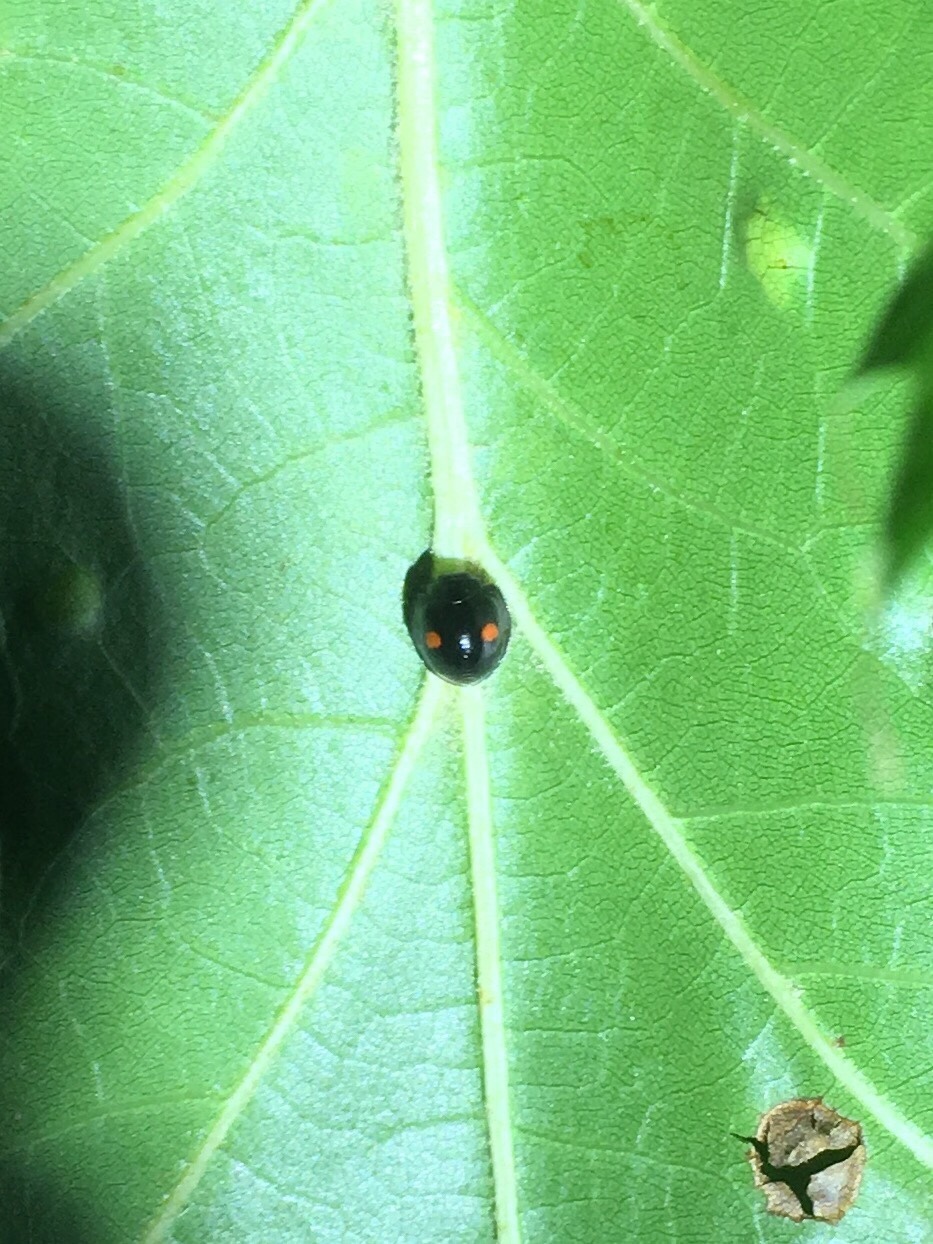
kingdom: Animalia
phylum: Arthropoda
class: Insecta
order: Coleoptera
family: Coccinellidae
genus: Chilocorus
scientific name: Chilocorus stigma
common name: Twicestabbed lady beetle
